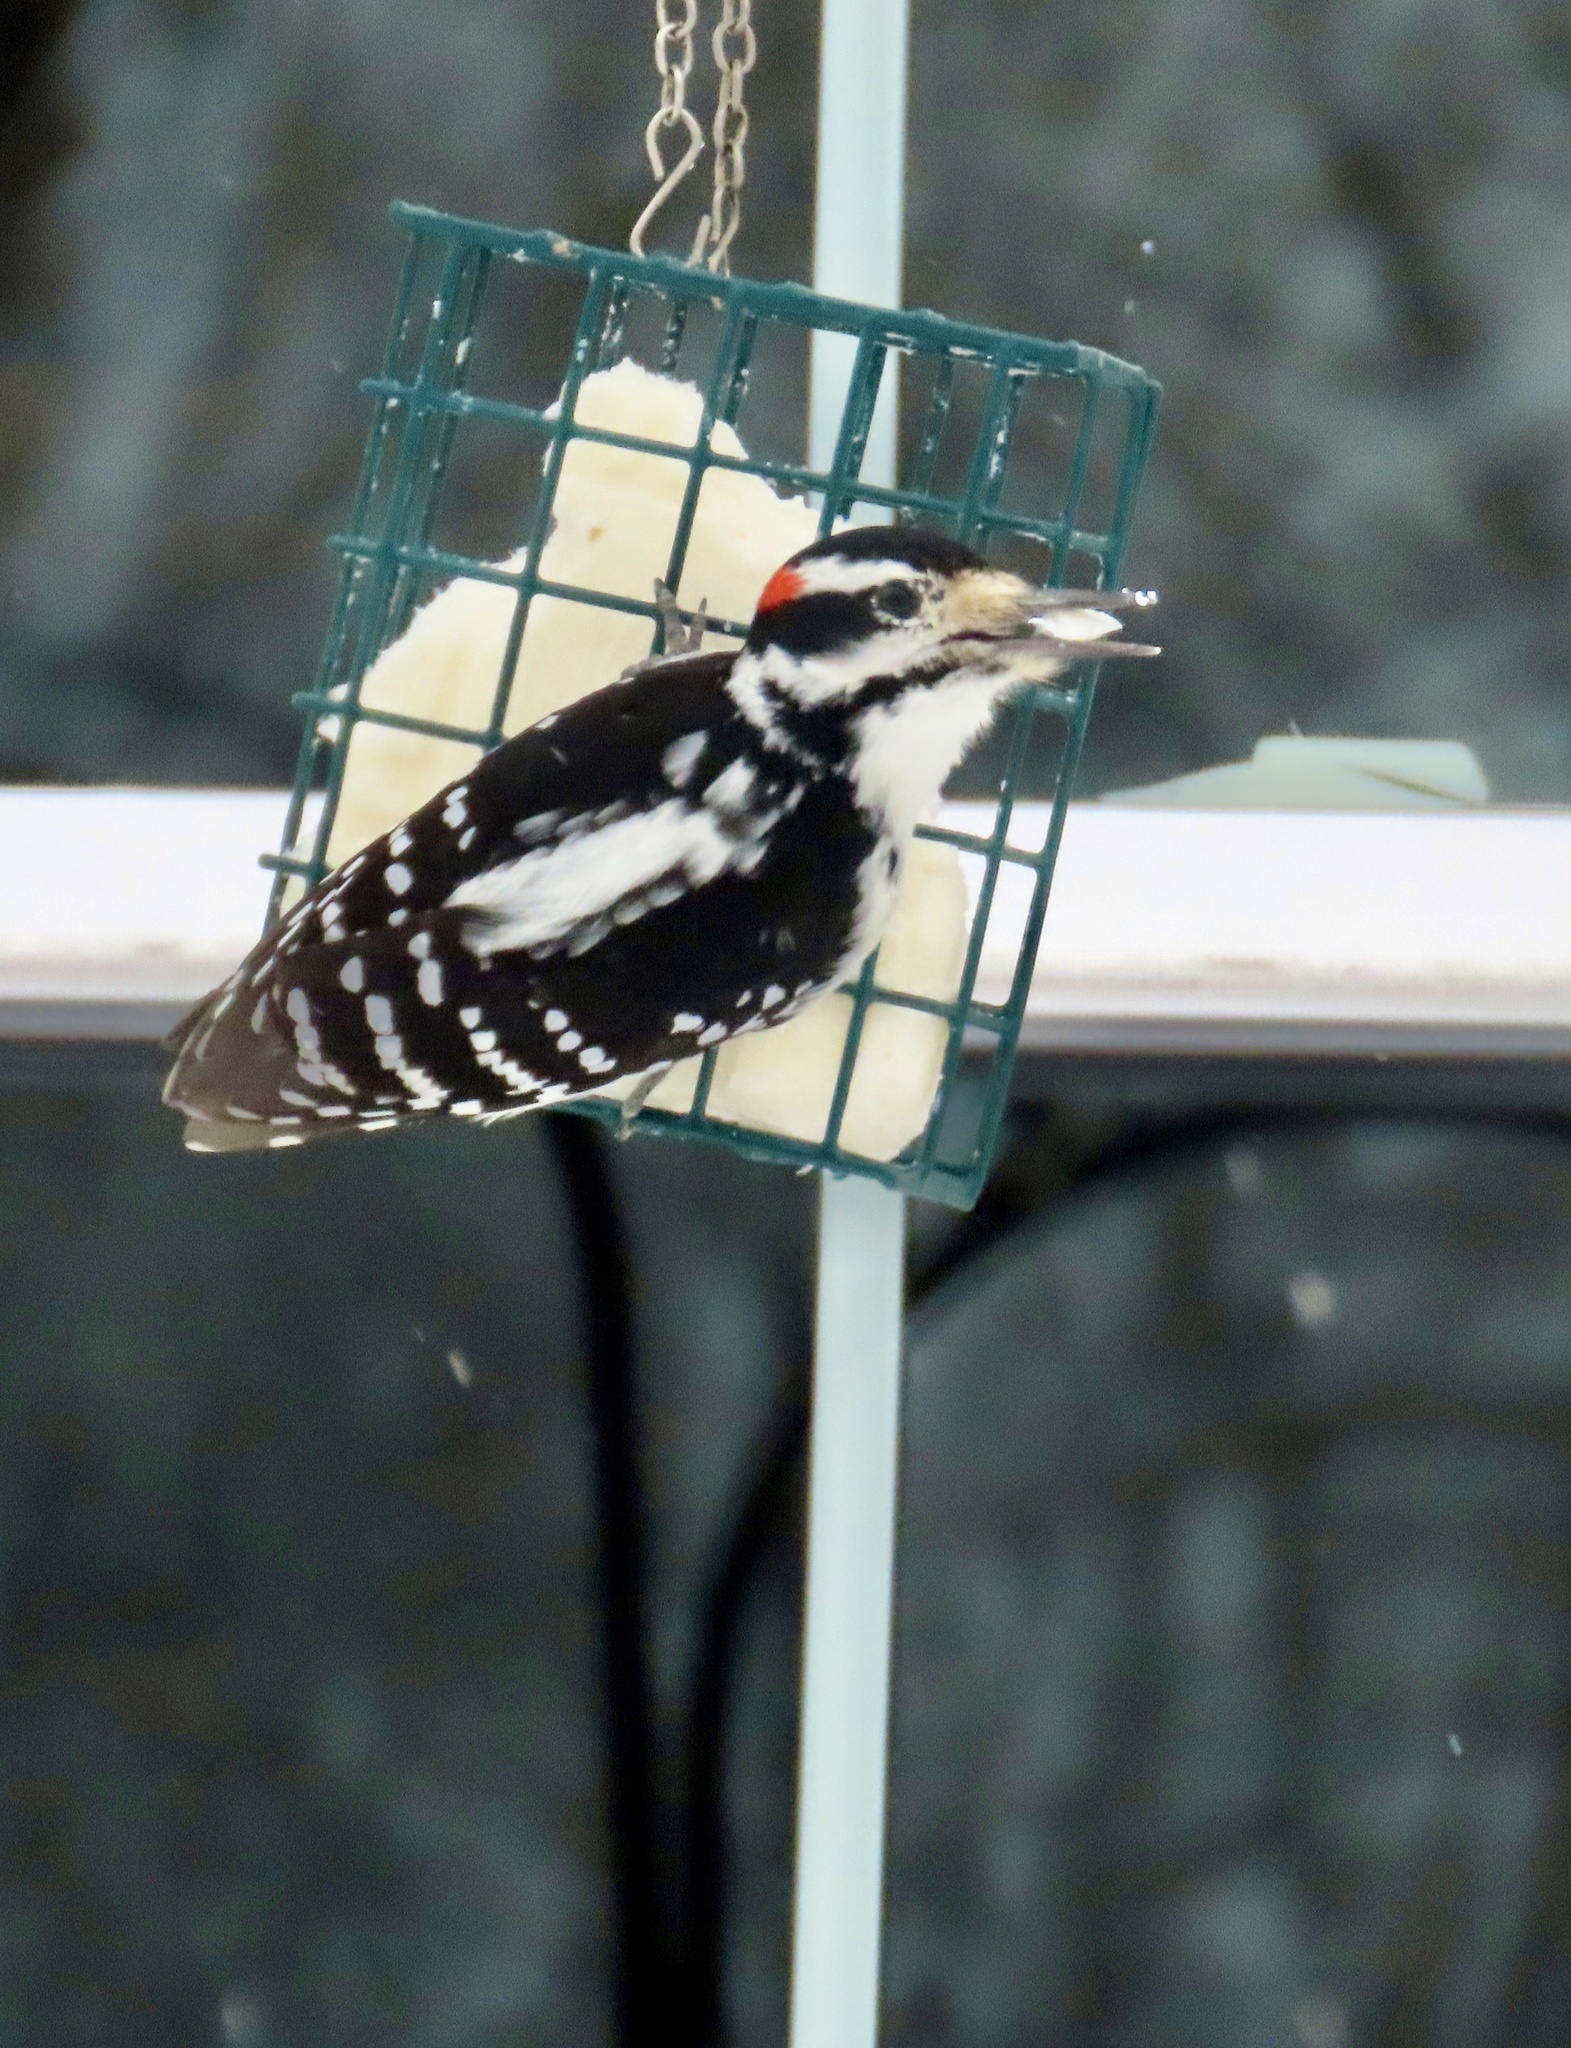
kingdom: Animalia
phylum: Chordata
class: Aves
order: Piciformes
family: Picidae
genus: Leuconotopicus
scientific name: Leuconotopicus villosus
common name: Hairy woodpecker
